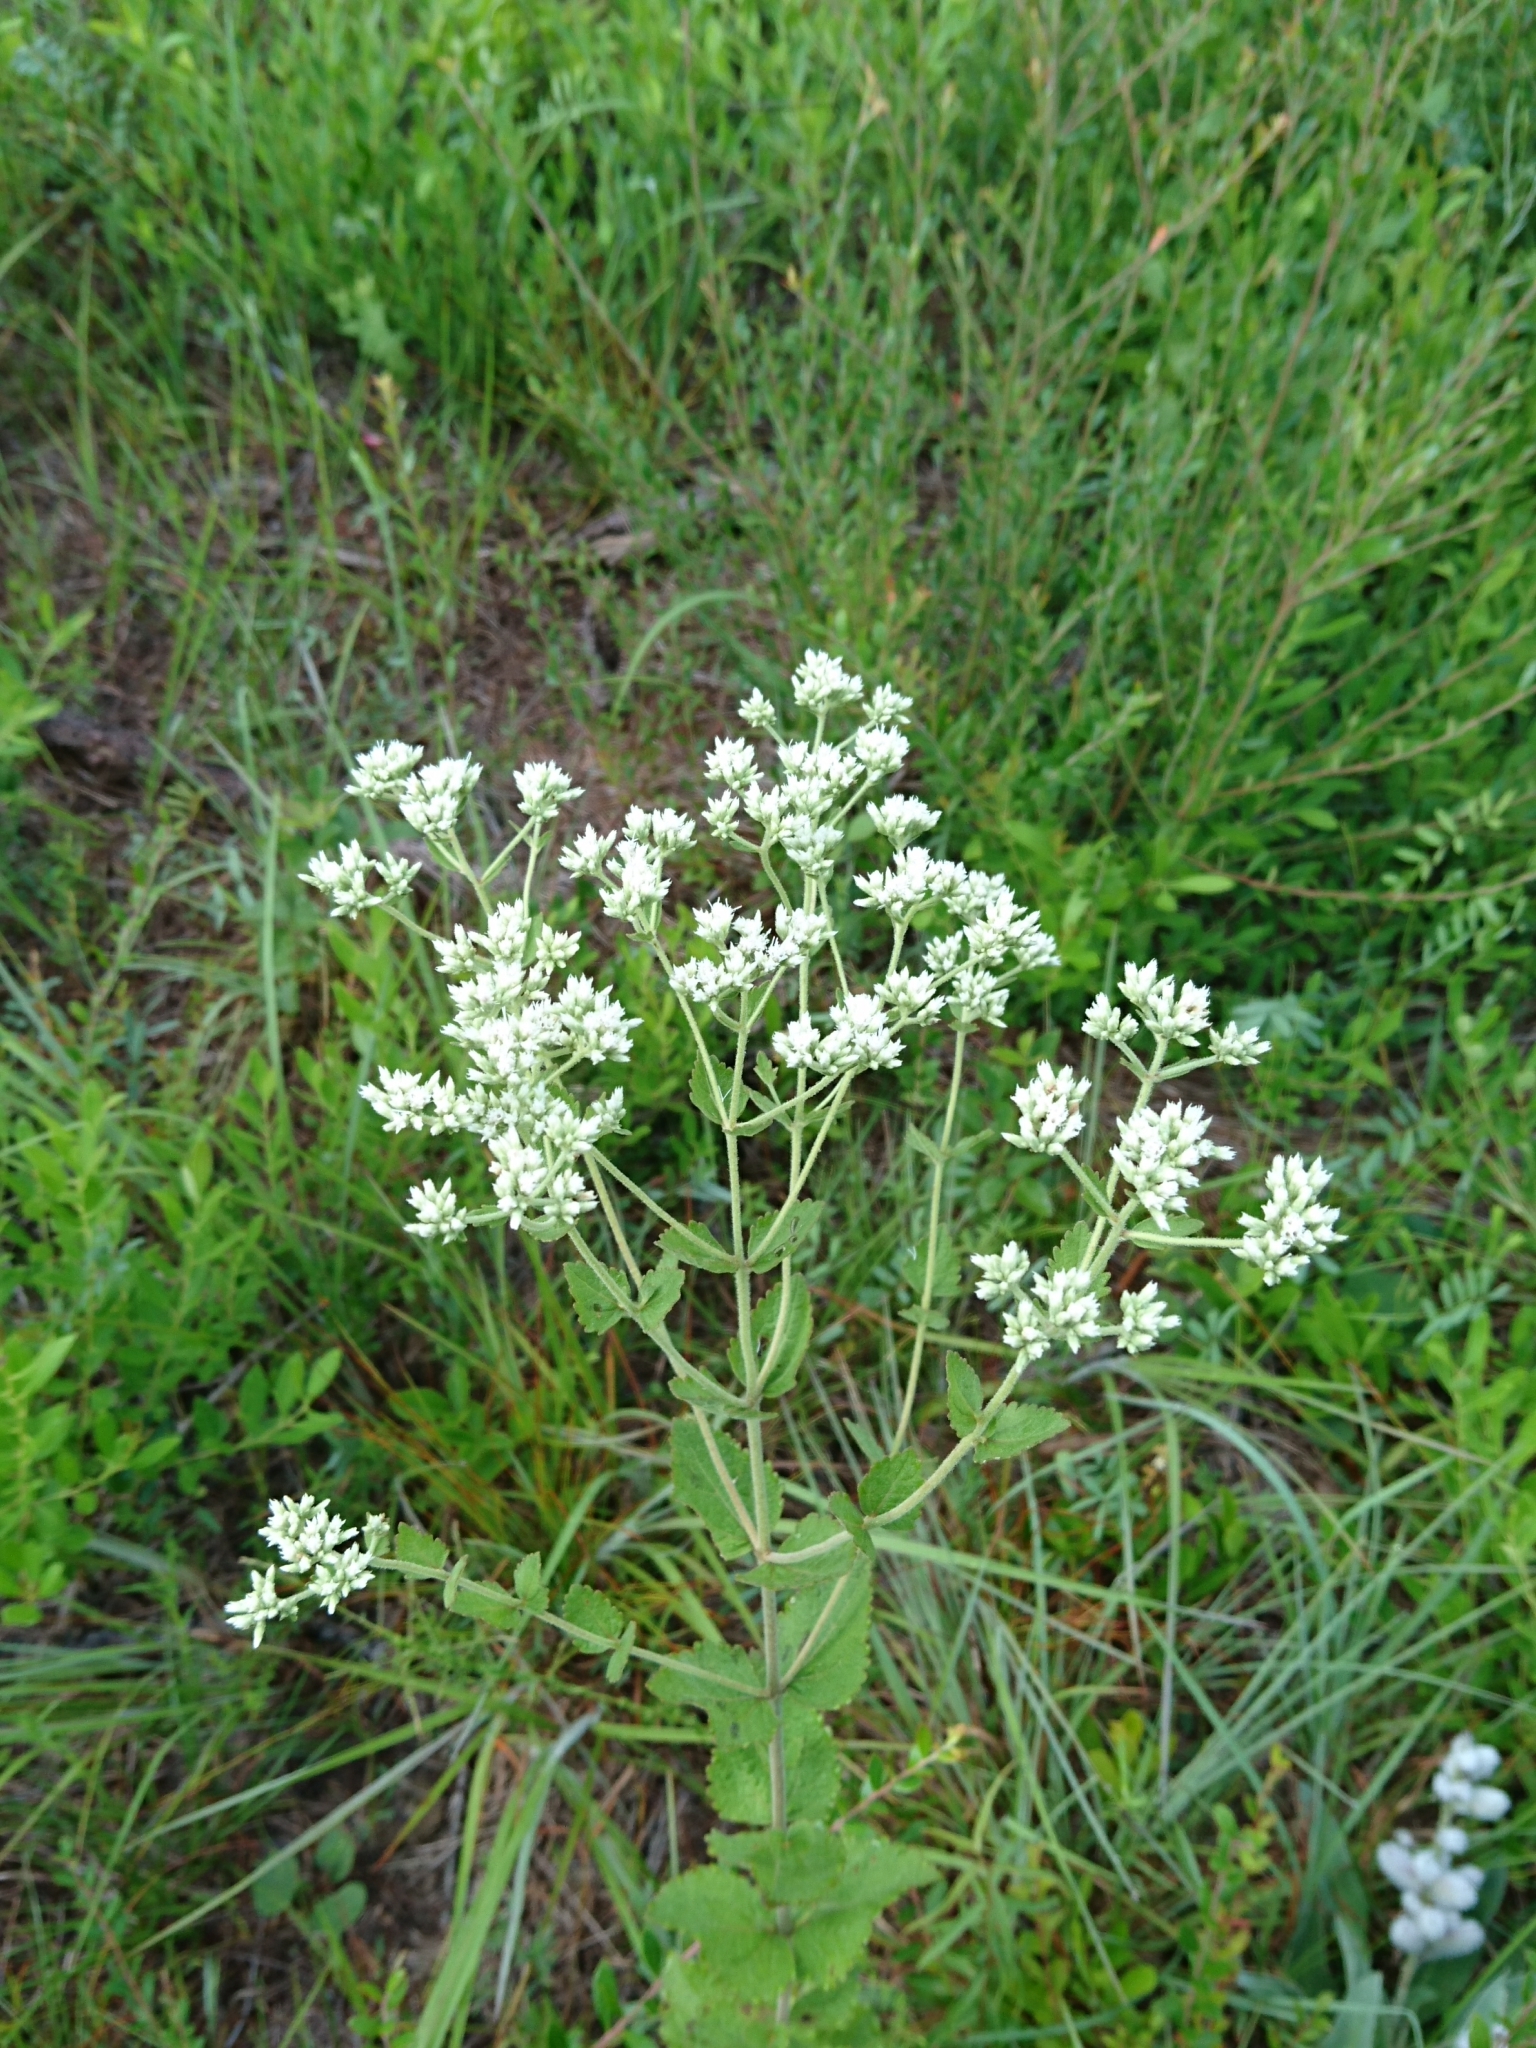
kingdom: Plantae
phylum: Tracheophyta
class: Magnoliopsida
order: Asterales
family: Asteraceae
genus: Eupatorium
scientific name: Eupatorium rotundifolium
